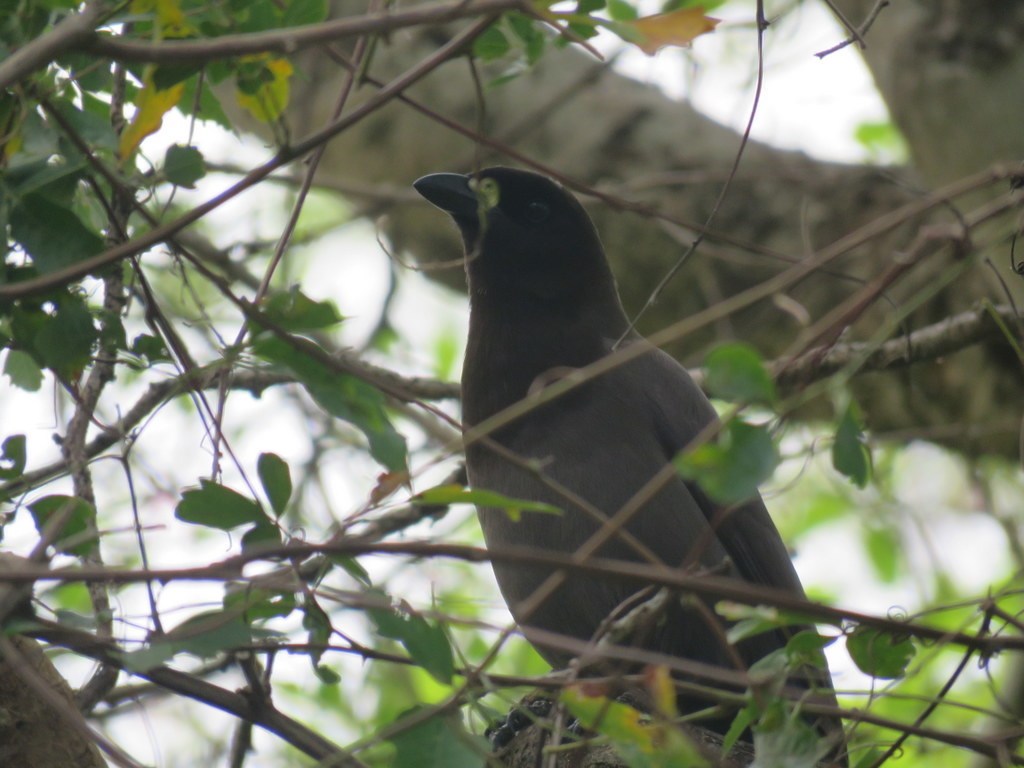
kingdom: Animalia
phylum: Chordata
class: Aves
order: Passeriformes
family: Corvidae
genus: Cyanocorax
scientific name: Cyanocorax cyanomelas
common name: Purplish jay
